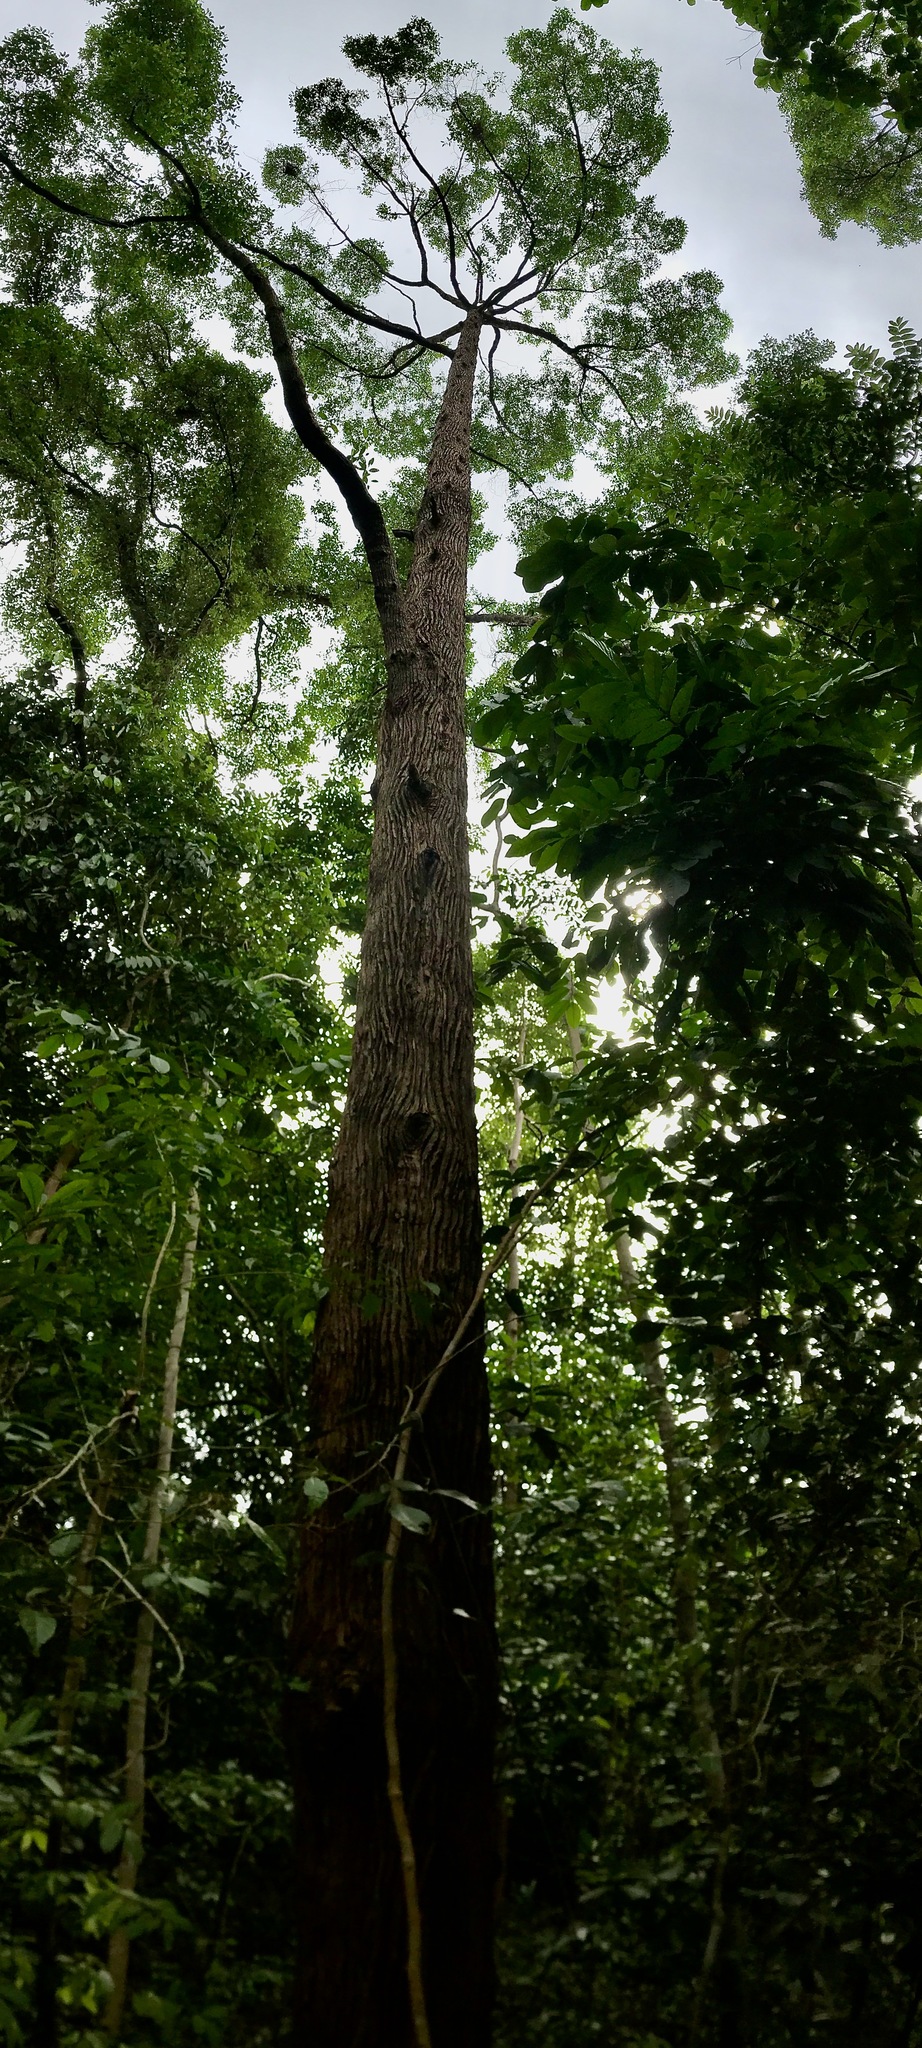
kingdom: Plantae
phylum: Tracheophyta
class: Magnoliopsida
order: Gentianales
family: Gentianaceae
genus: Cyrtophyllum
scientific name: Cyrtophyllum fragrans
